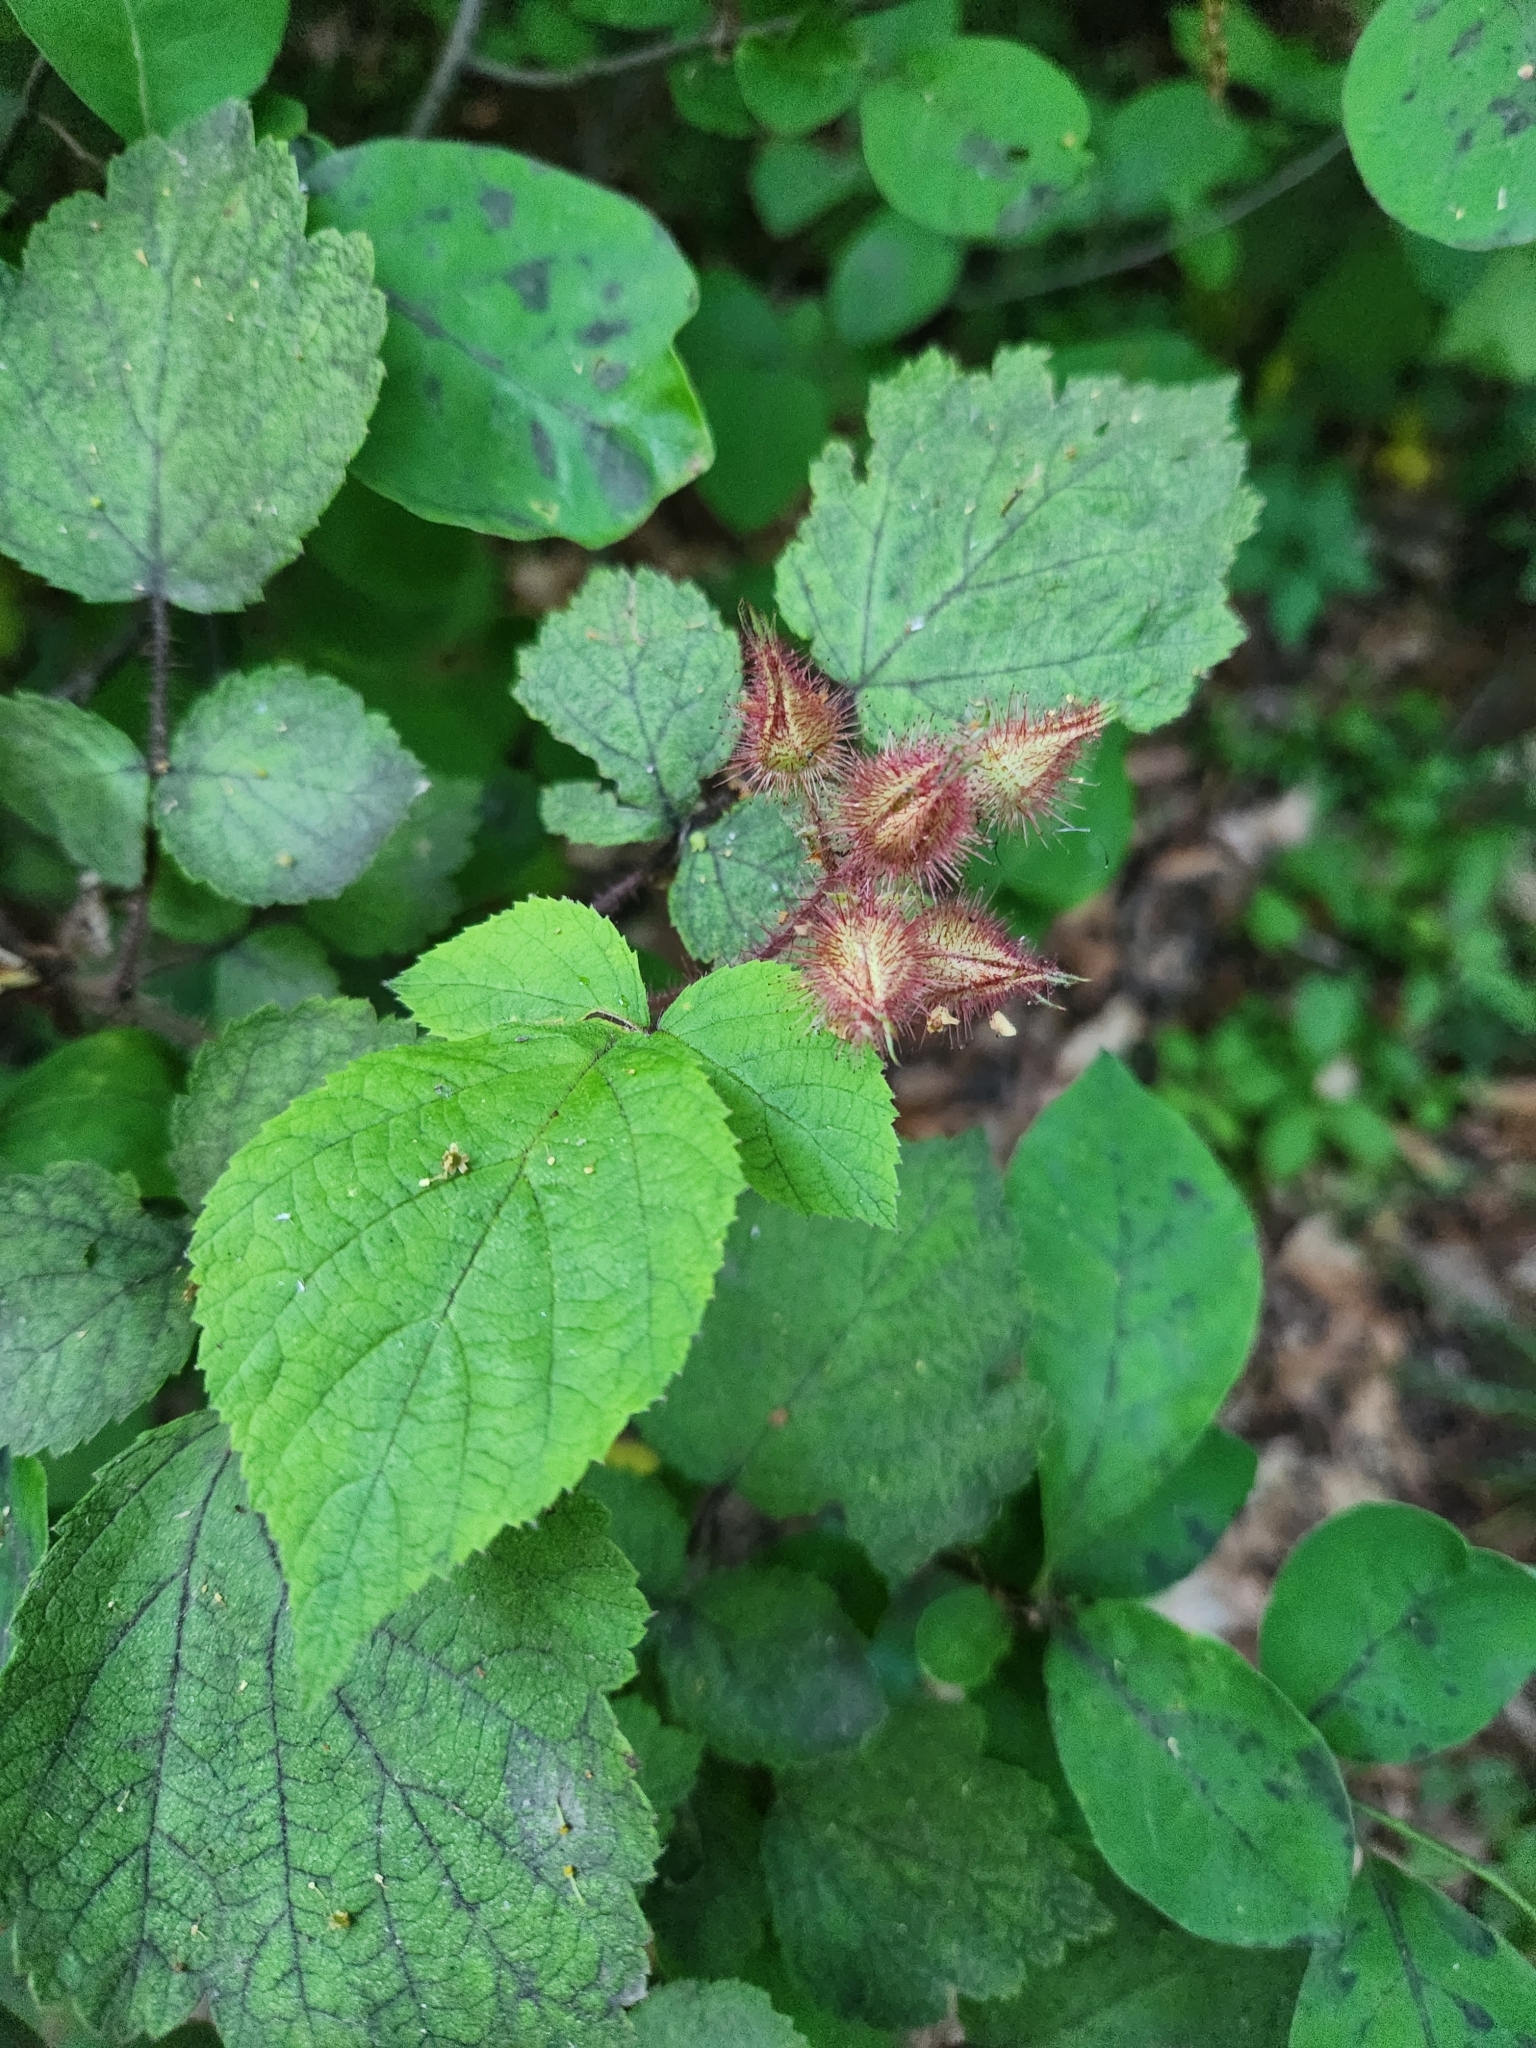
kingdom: Plantae
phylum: Tracheophyta
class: Magnoliopsida
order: Rosales
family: Rosaceae
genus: Rubus
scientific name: Rubus phoenicolasius
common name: Japanese wineberry
